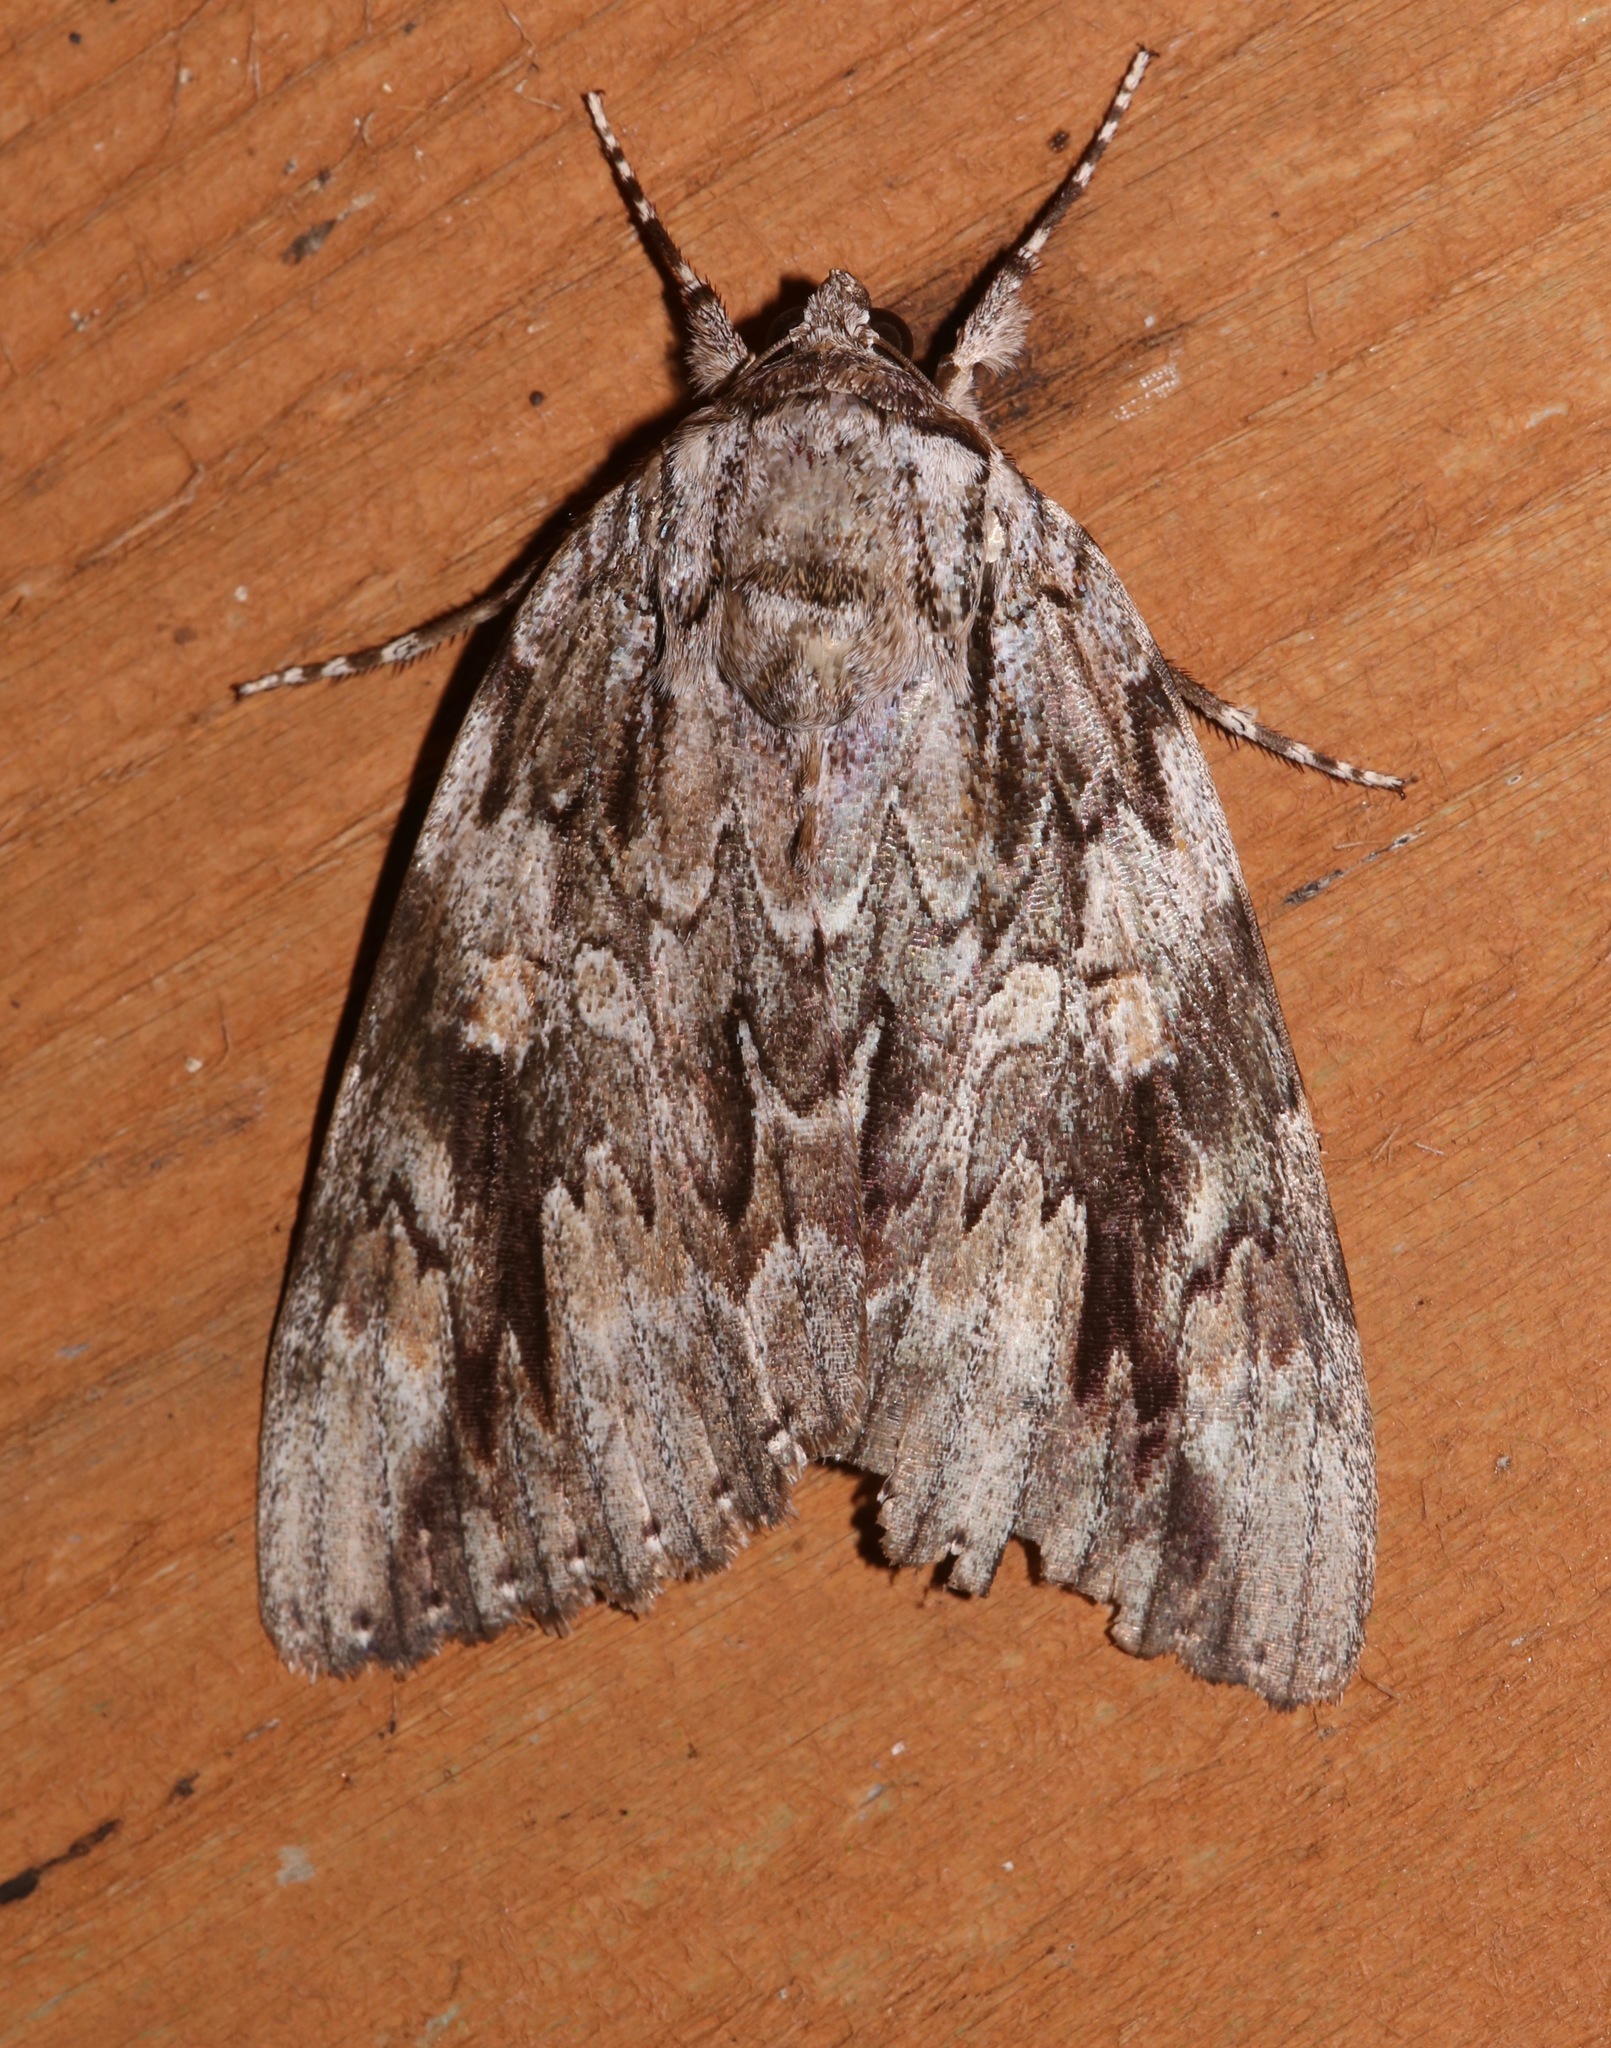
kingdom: Animalia
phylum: Arthropoda
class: Insecta
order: Lepidoptera
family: Erebidae
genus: Catocala
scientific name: Catocala maestosa
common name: Sad underwing
